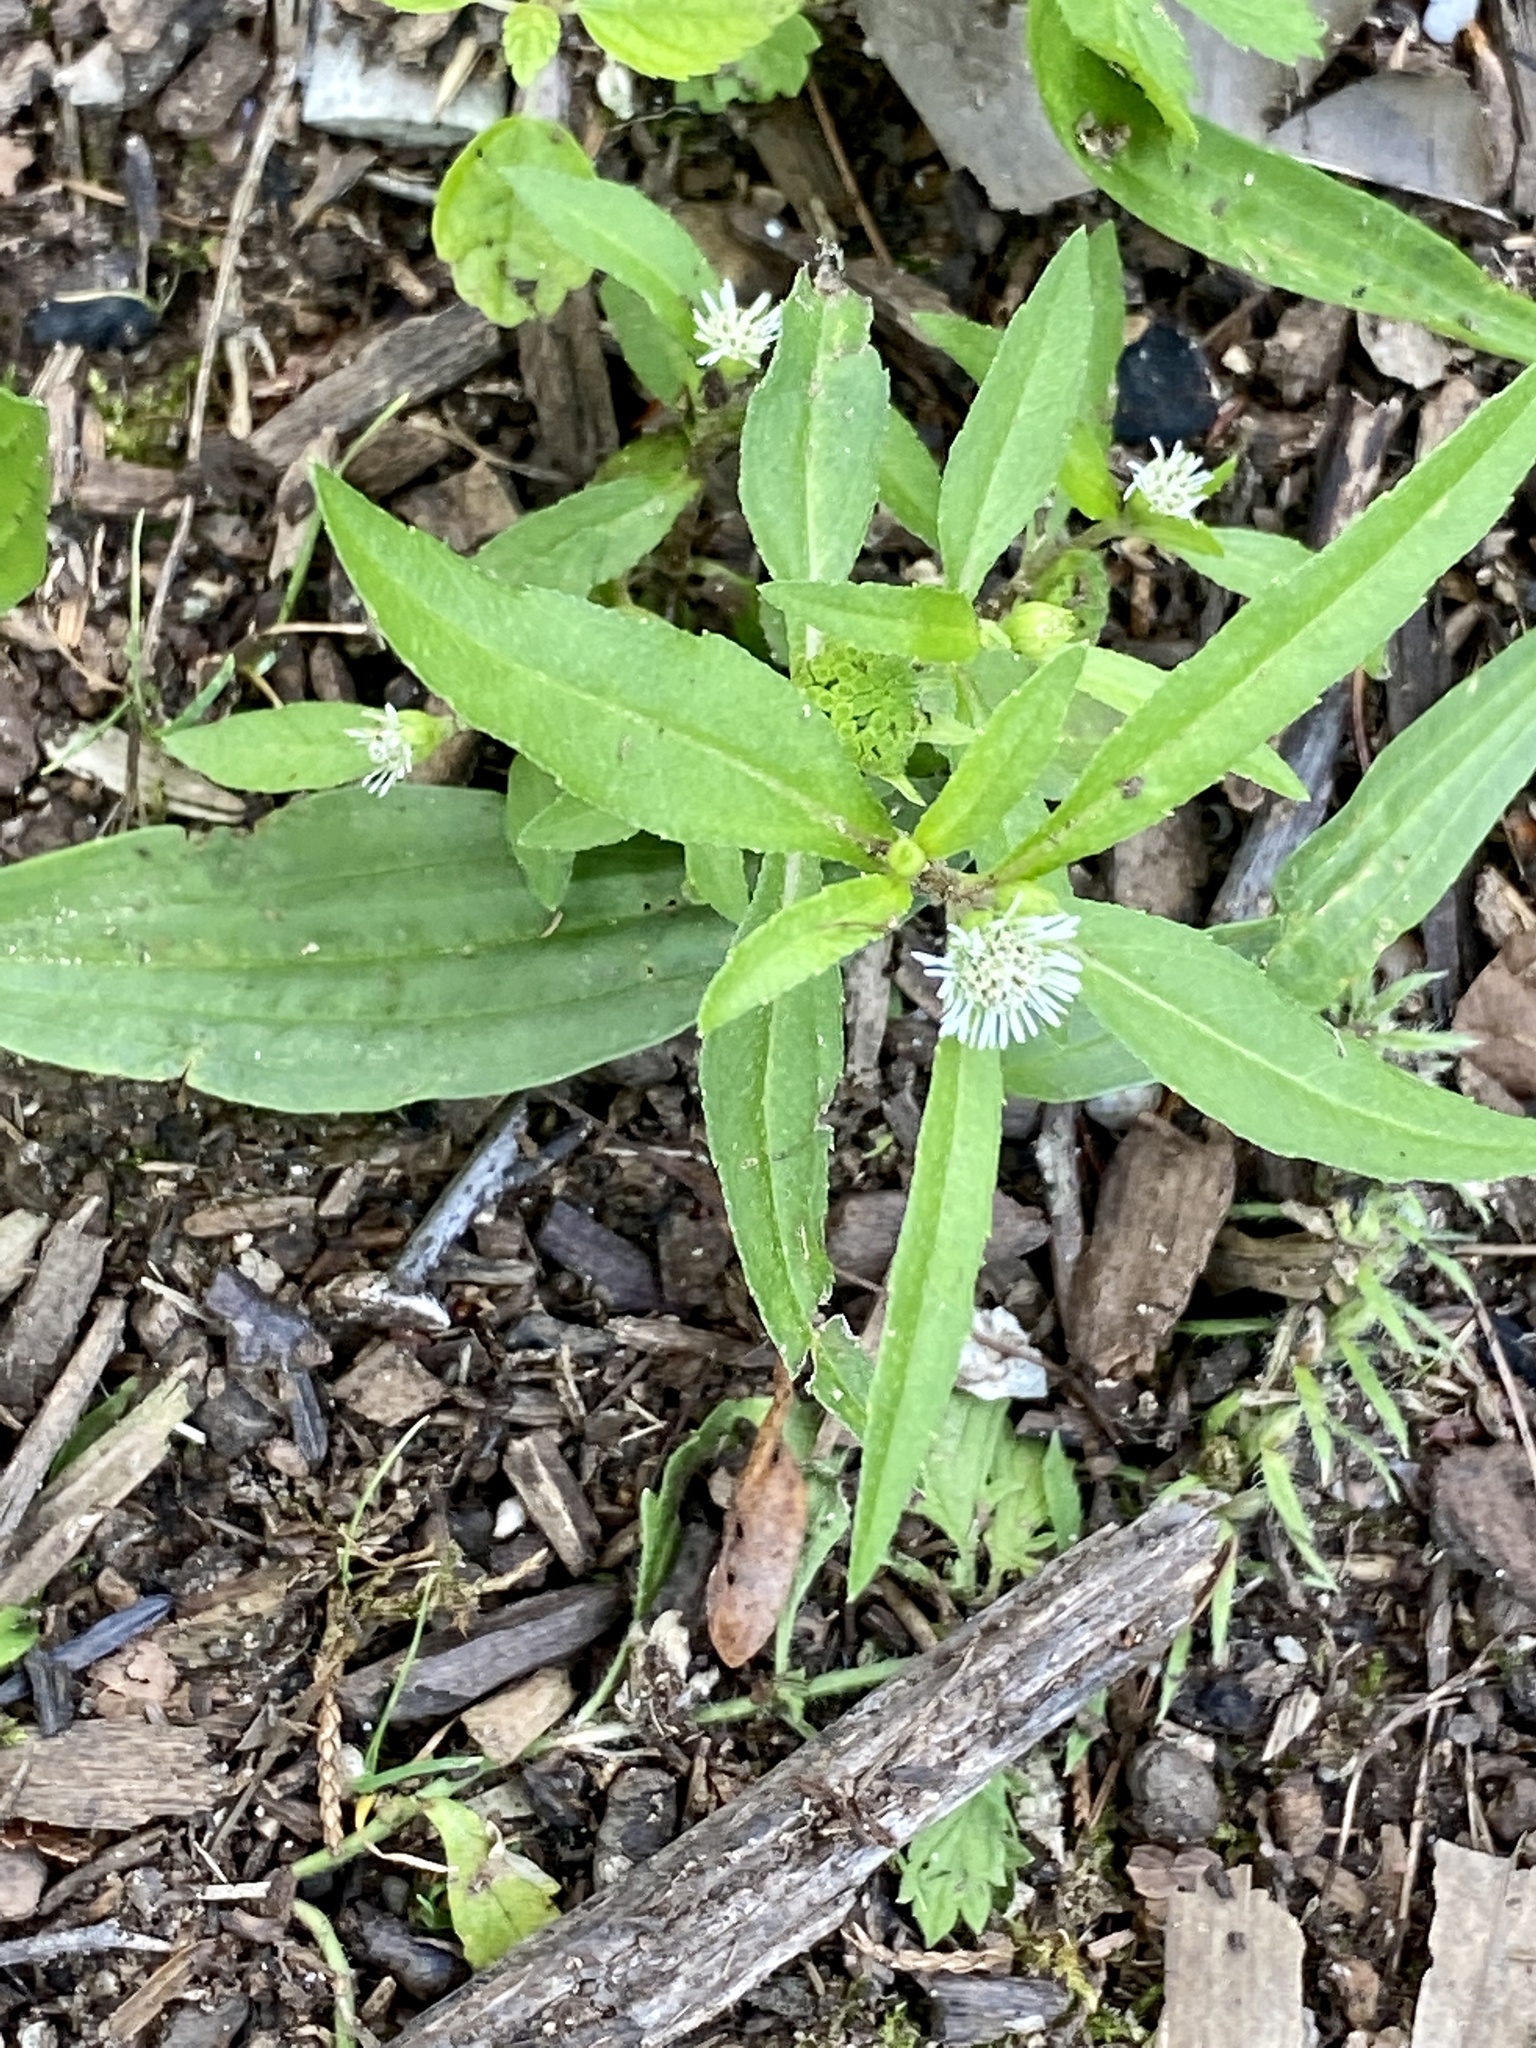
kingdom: Plantae
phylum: Tracheophyta
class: Magnoliopsida
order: Asterales
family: Asteraceae
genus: Eclipta
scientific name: Eclipta prostrata
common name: False daisy
